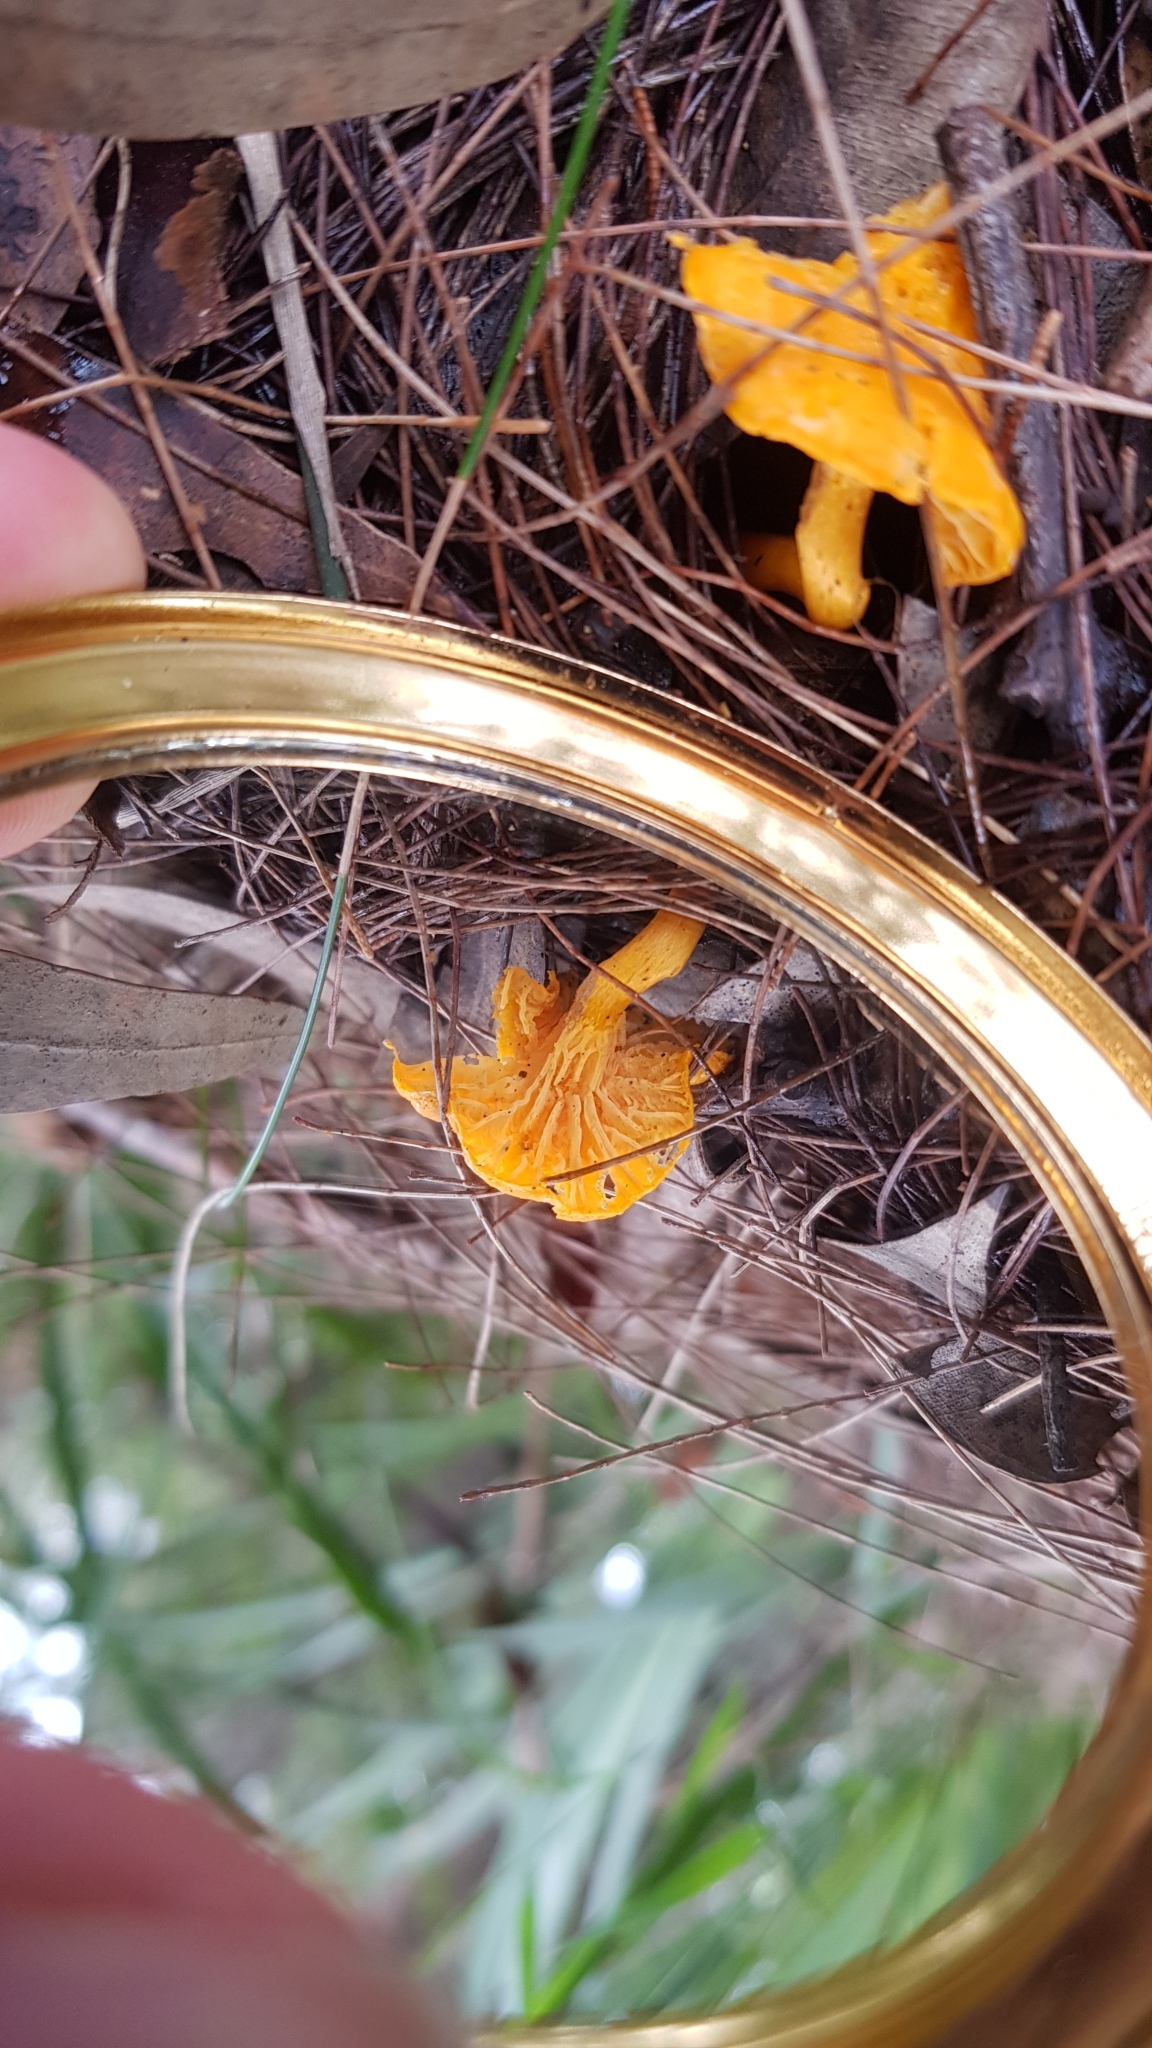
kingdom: Fungi
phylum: Basidiomycota
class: Agaricomycetes
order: Cantharellales
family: Hydnaceae
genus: Cantharellus
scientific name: Cantharellus
